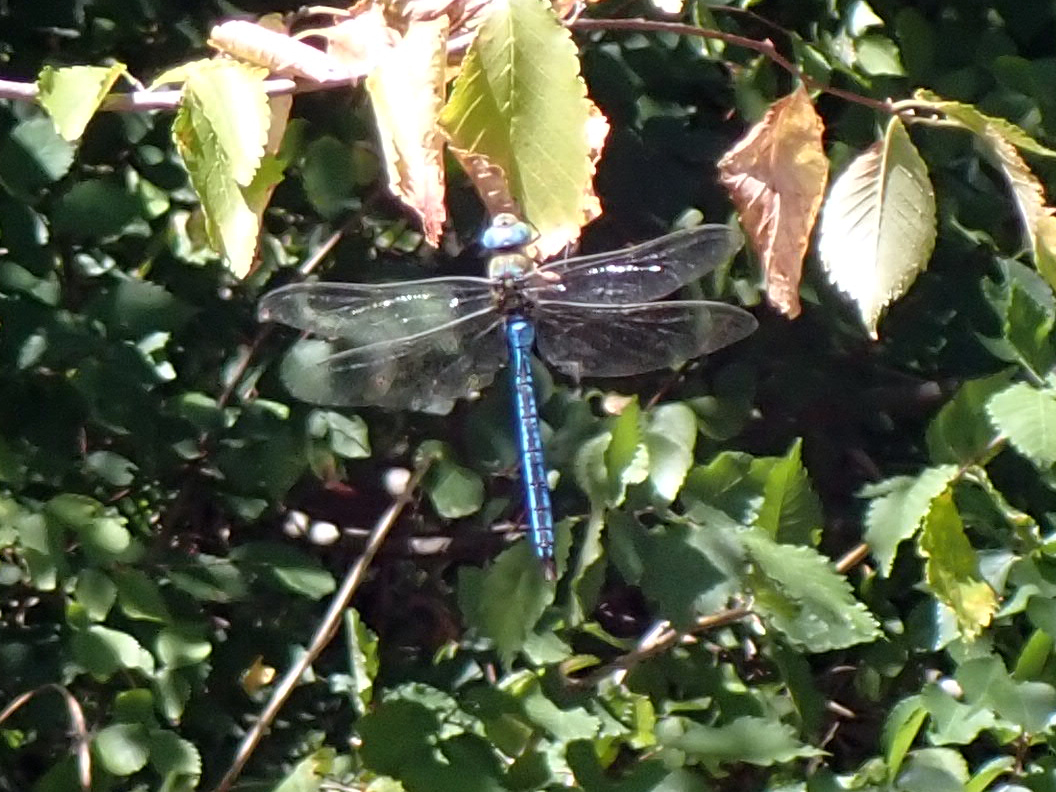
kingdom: Animalia
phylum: Arthropoda
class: Insecta
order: Odonata
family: Aeshnidae
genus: Anax
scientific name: Anax imperator
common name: Emperor dragonfly
